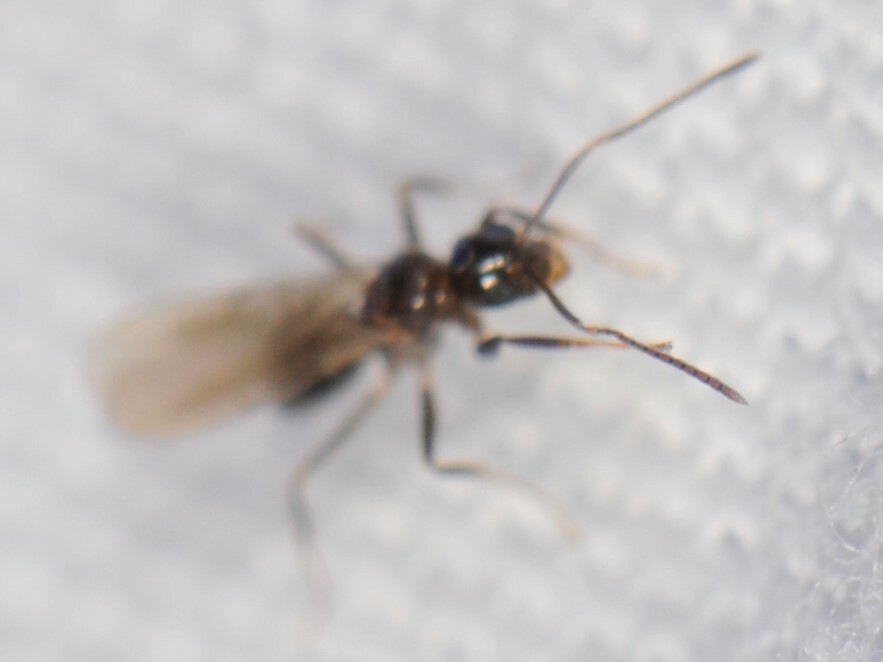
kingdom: Animalia
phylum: Arthropoda
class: Insecta
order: Hymenoptera
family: Formicidae
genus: Nylanderia
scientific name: Nylanderia
